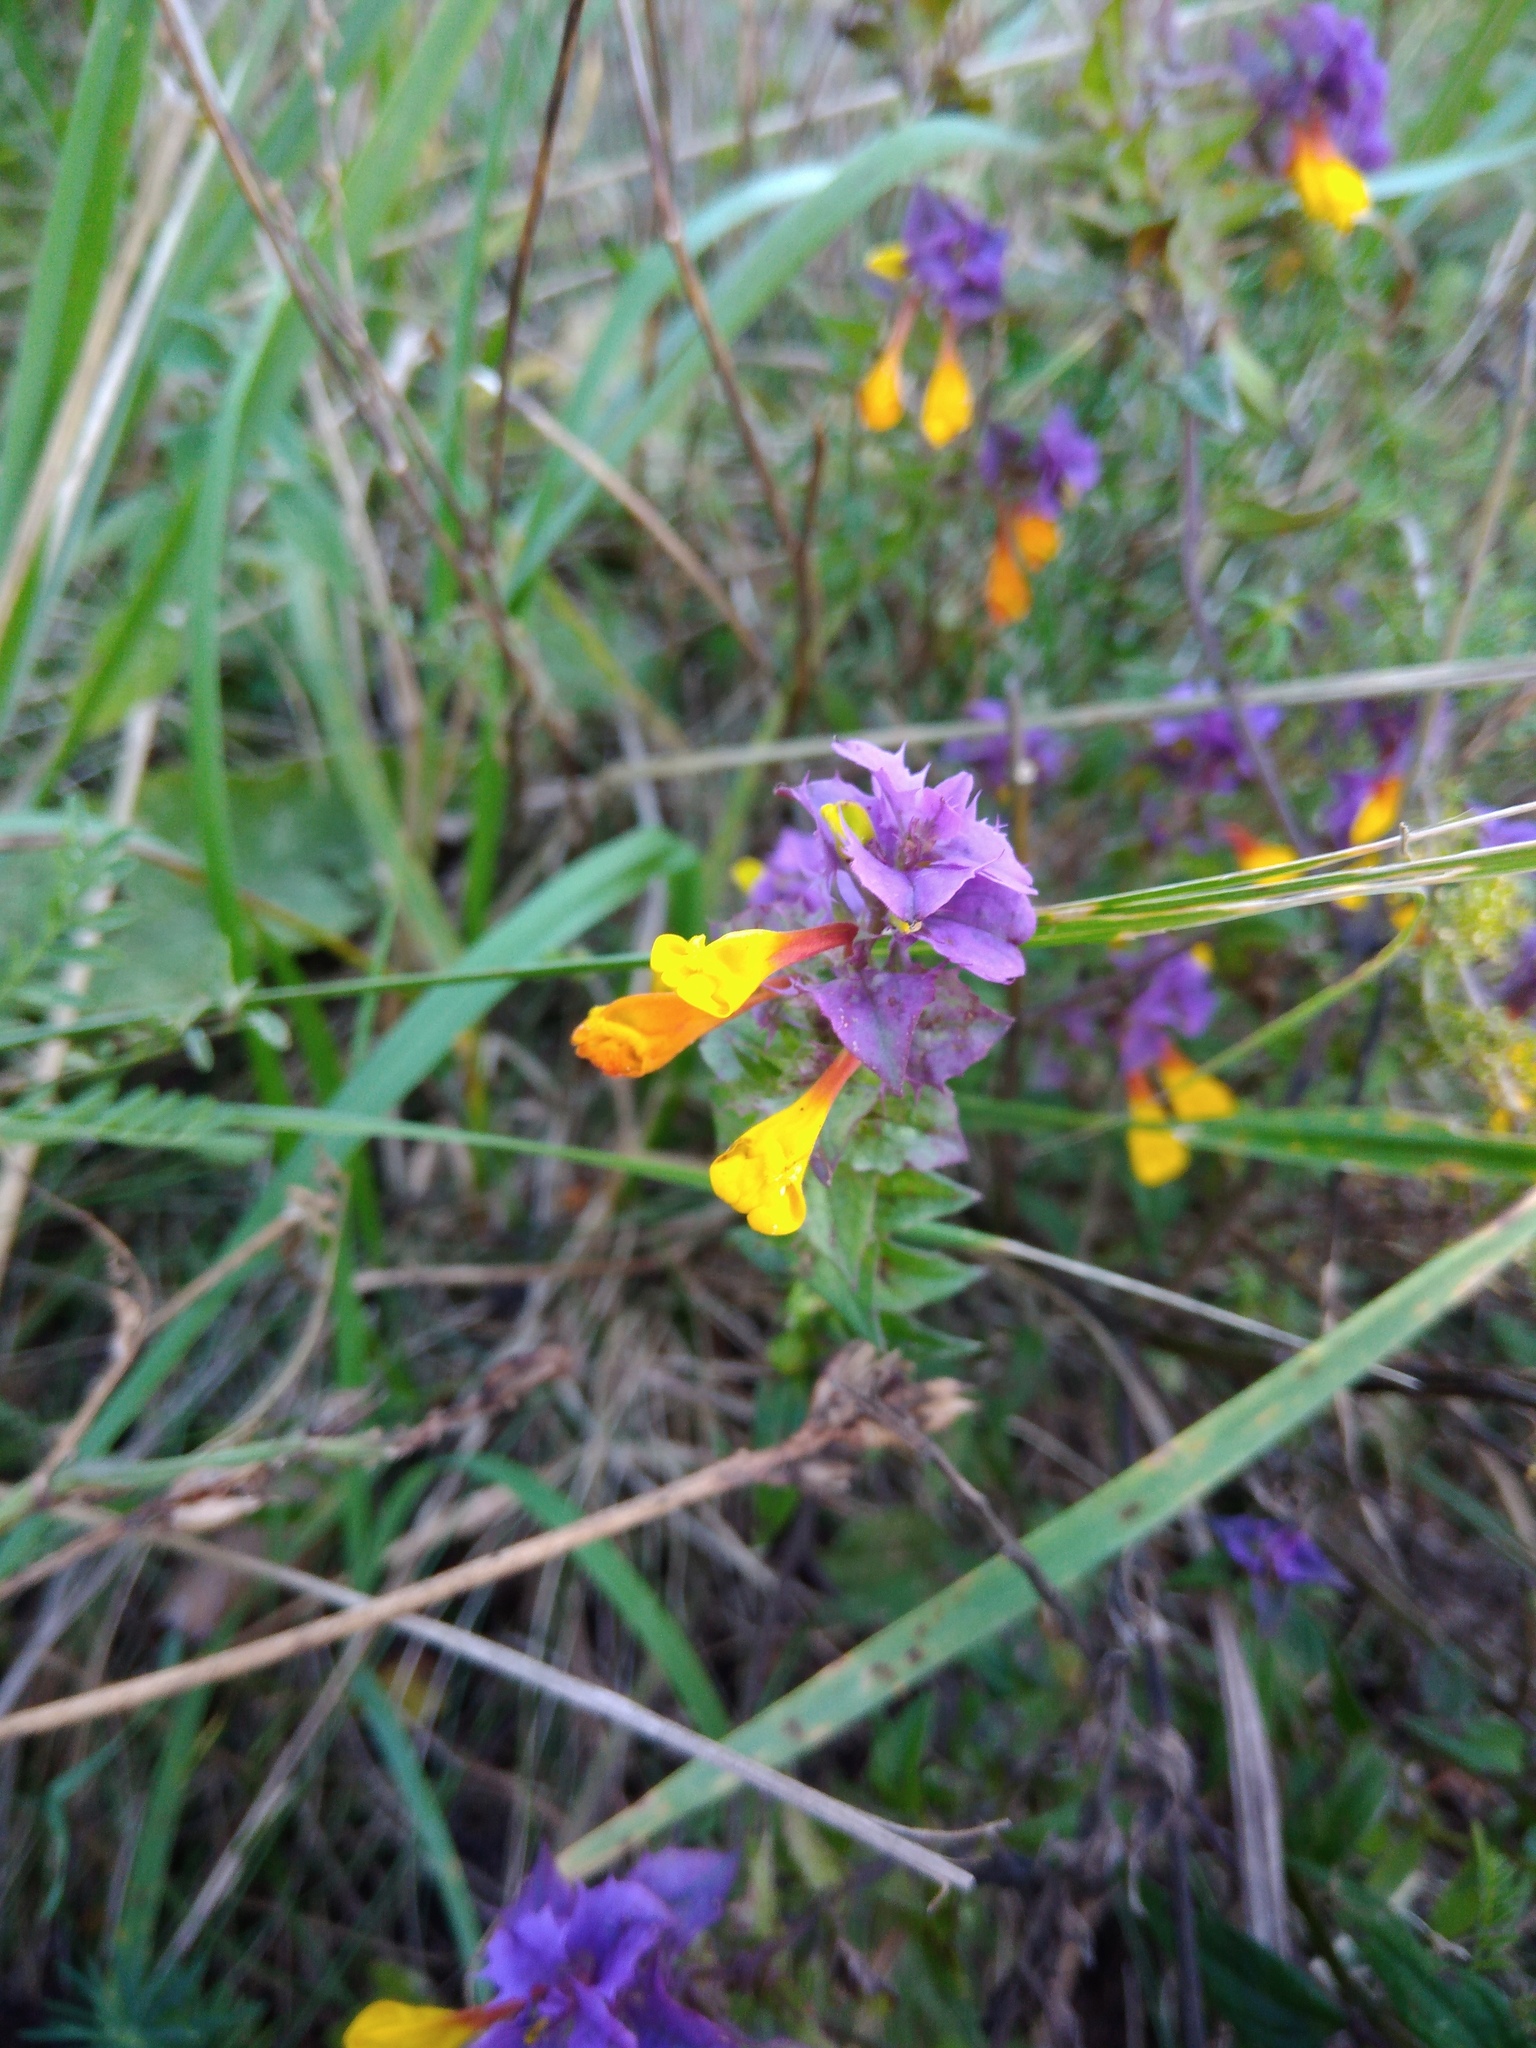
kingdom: Plantae
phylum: Tracheophyta
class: Magnoliopsida
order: Lamiales
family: Orobanchaceae
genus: Melampyrum
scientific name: Melampyrum nemorosum
